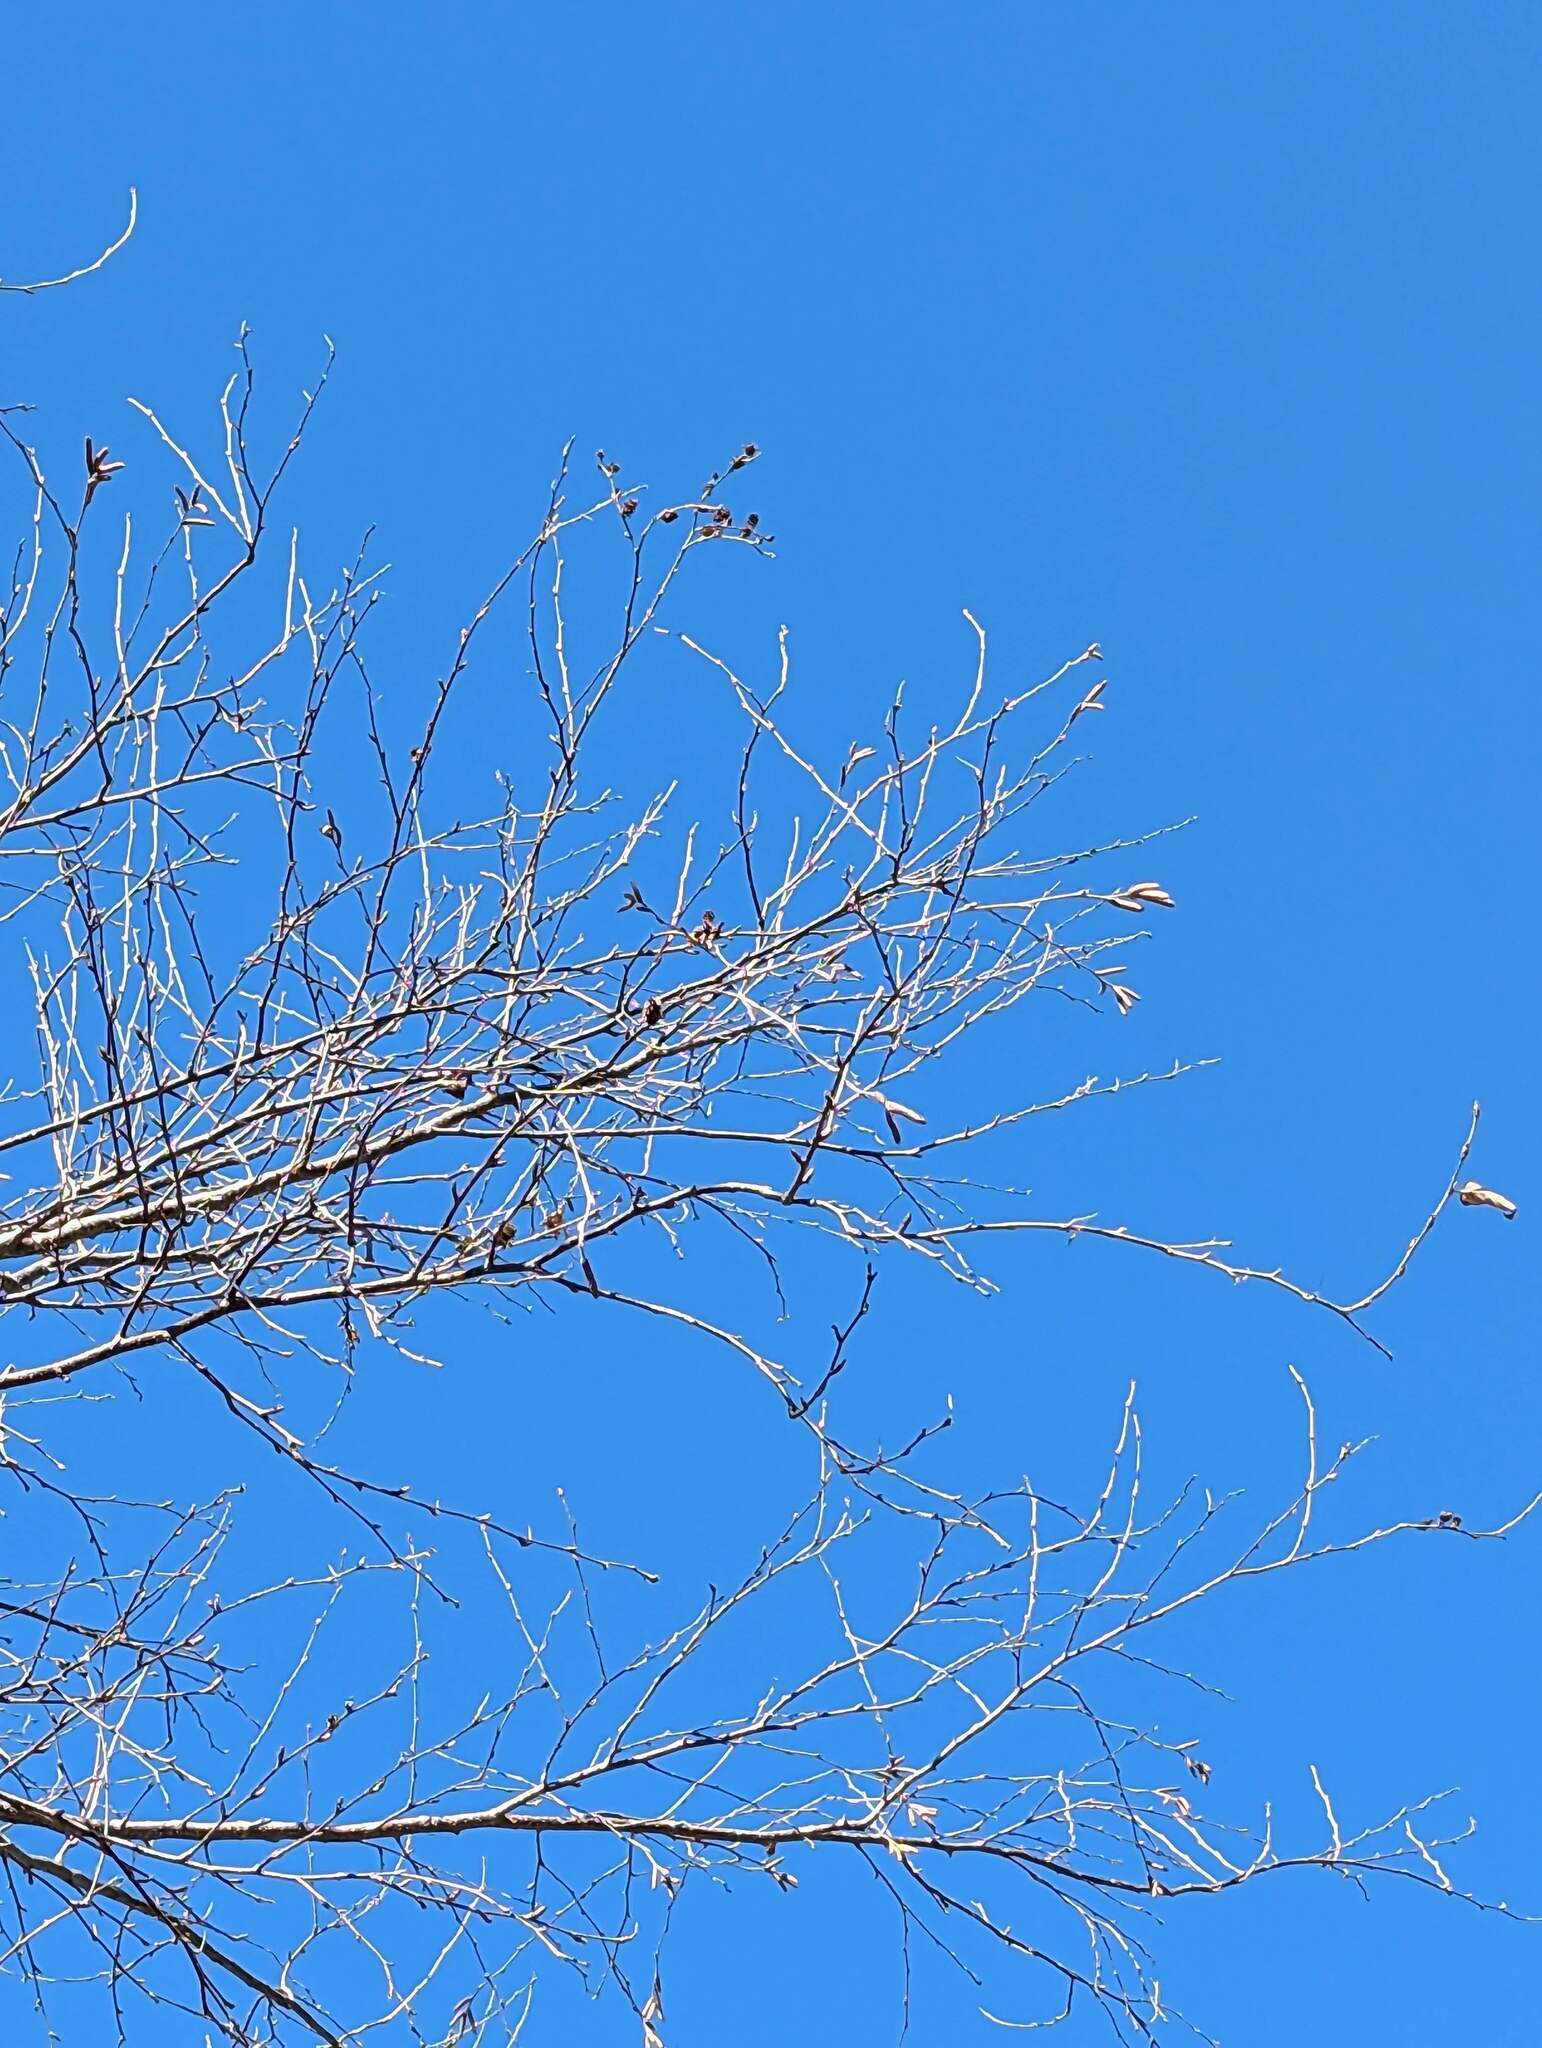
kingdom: Plantae
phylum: Tracheophyta
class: Magnoliopsida
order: Fagales
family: Betulaceae
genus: Betula
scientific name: Betula alleghaniensis
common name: Yellow birch
